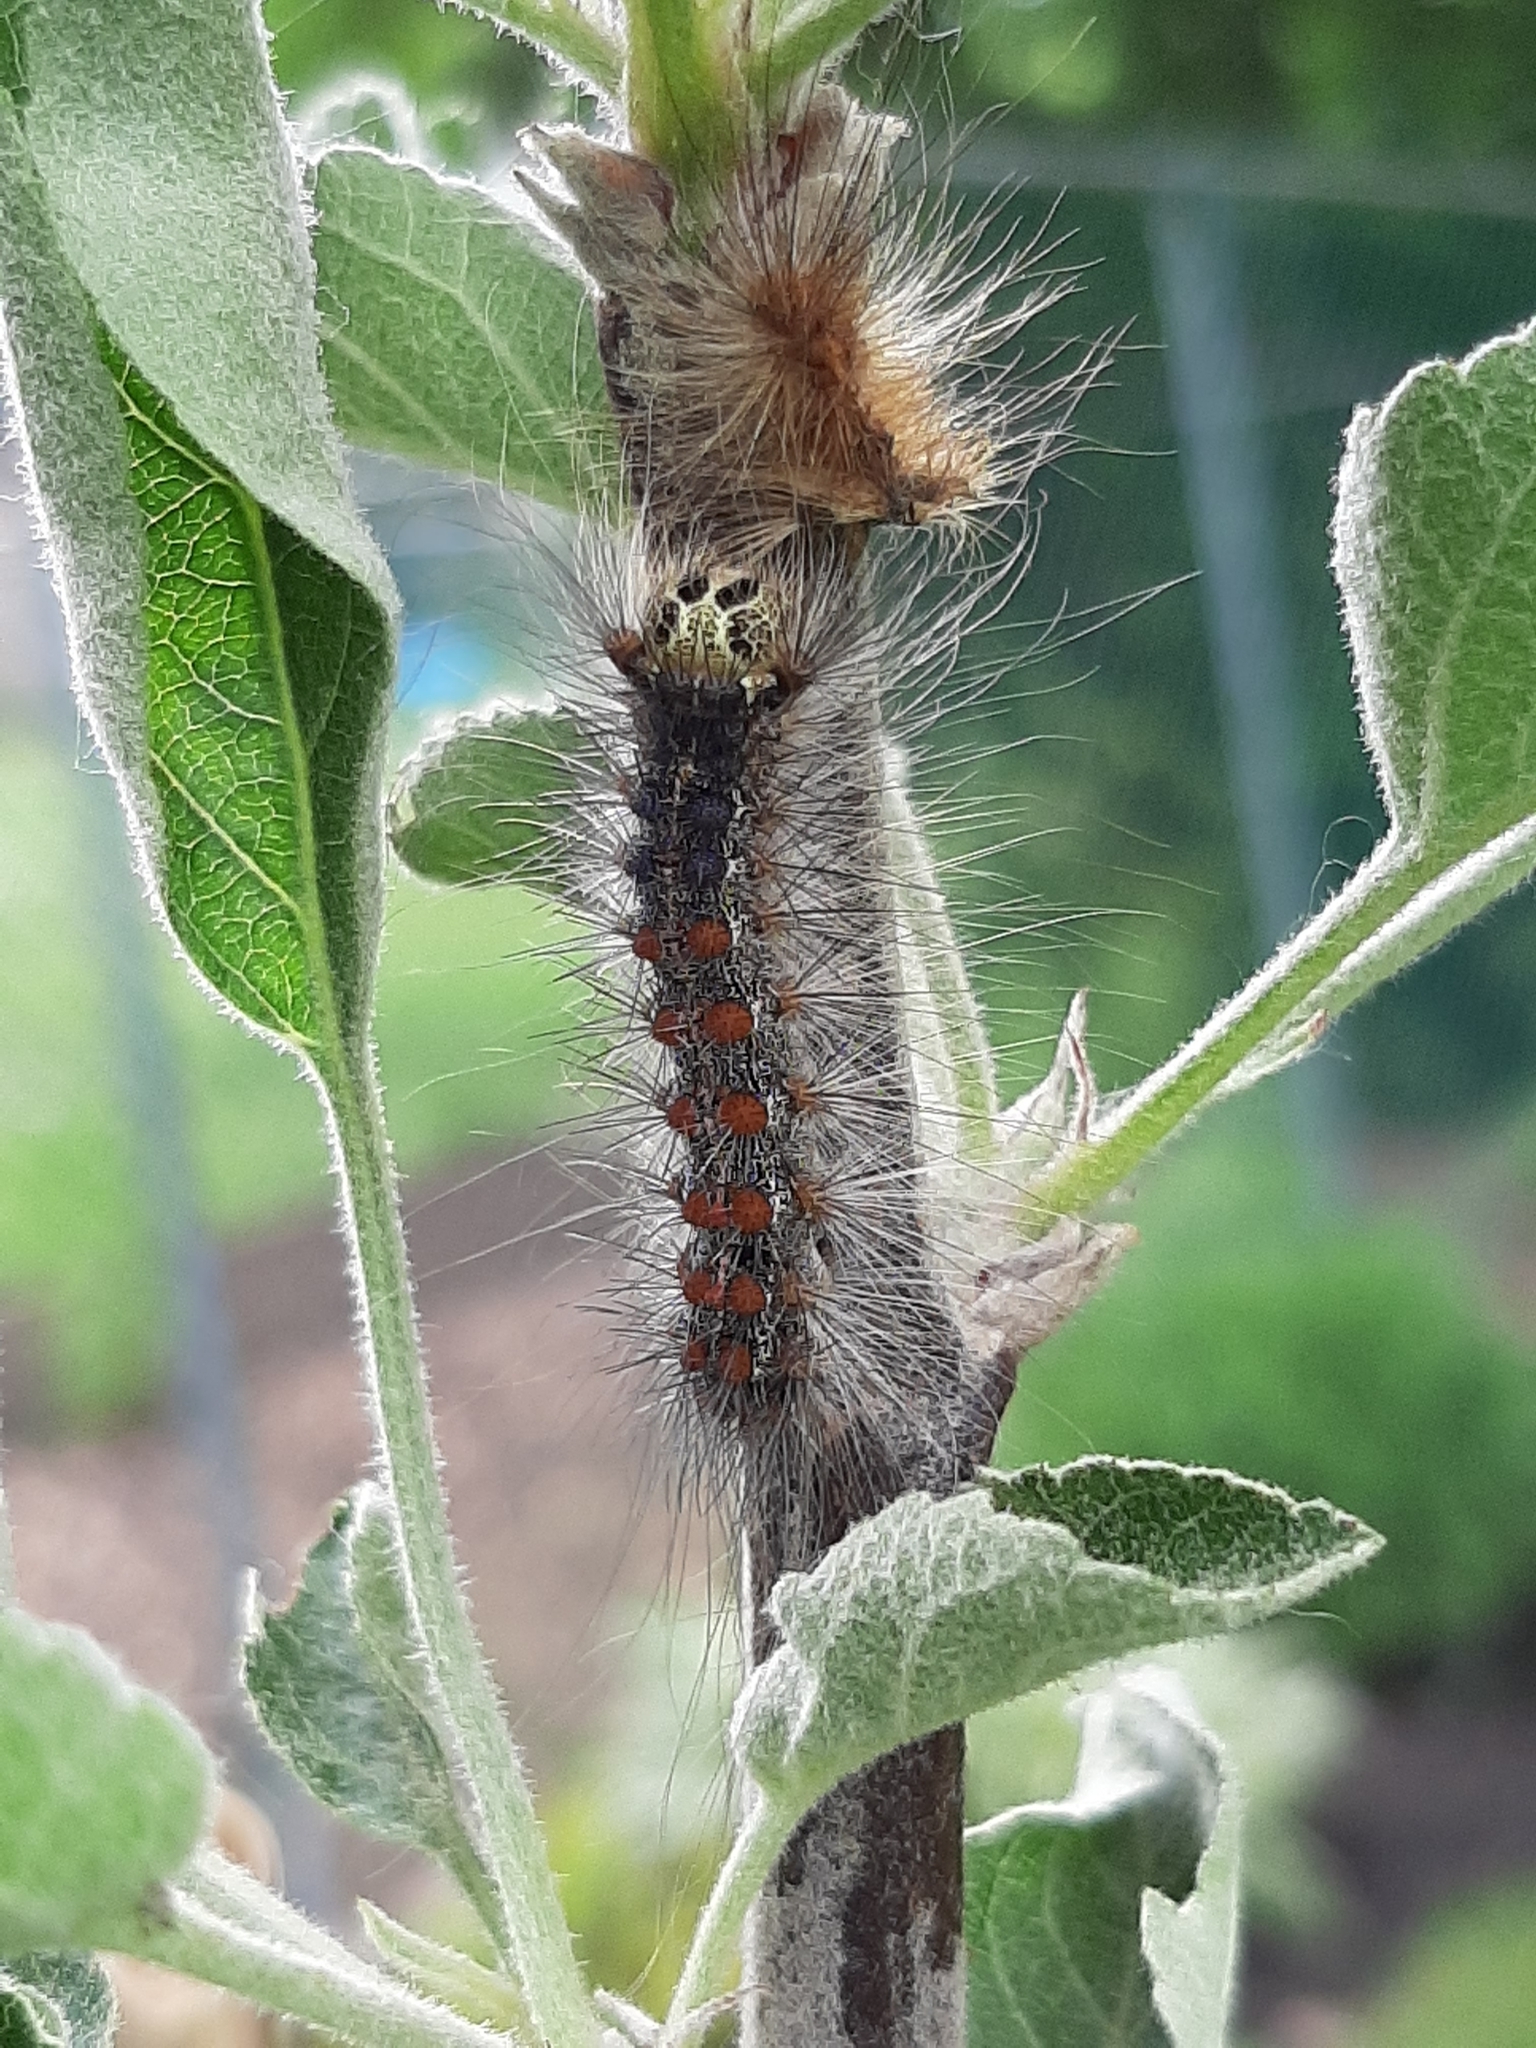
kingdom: Animalia
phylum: Arthropoda
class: Insecta
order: Lepidoptera
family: Erebidae
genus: Lymantria
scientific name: Lymantria dispar
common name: Gypsy moth
